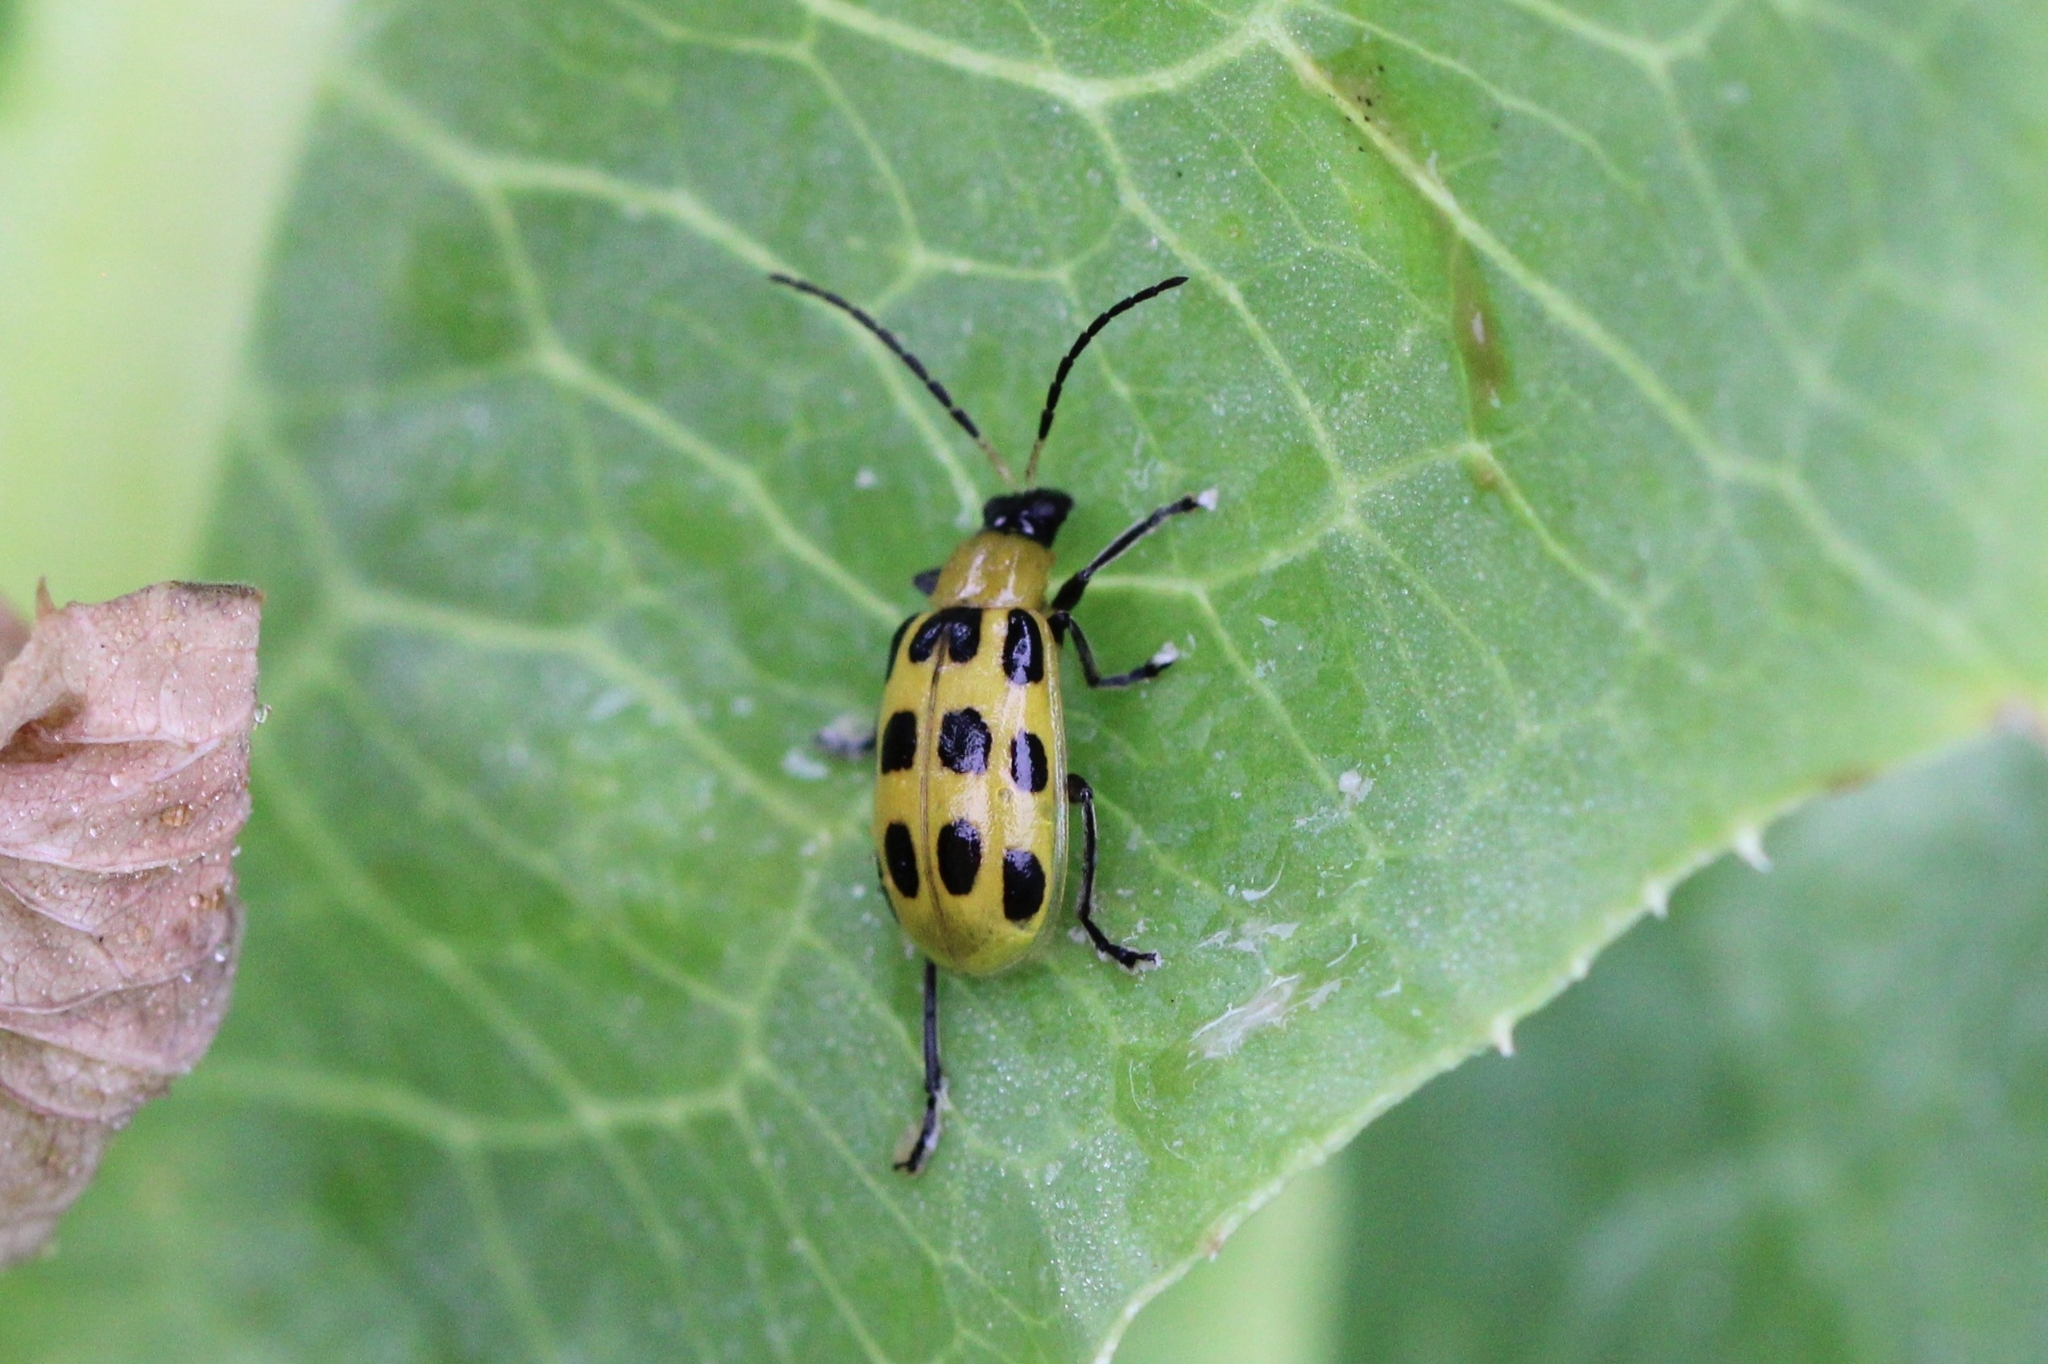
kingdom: Animalia
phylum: Arthropoda
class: Insecta
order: Coleoptera
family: Chrysomelidae
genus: Diabrotica
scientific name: Diabrotica undecimpunctata
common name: Spotted cucumber beetle
